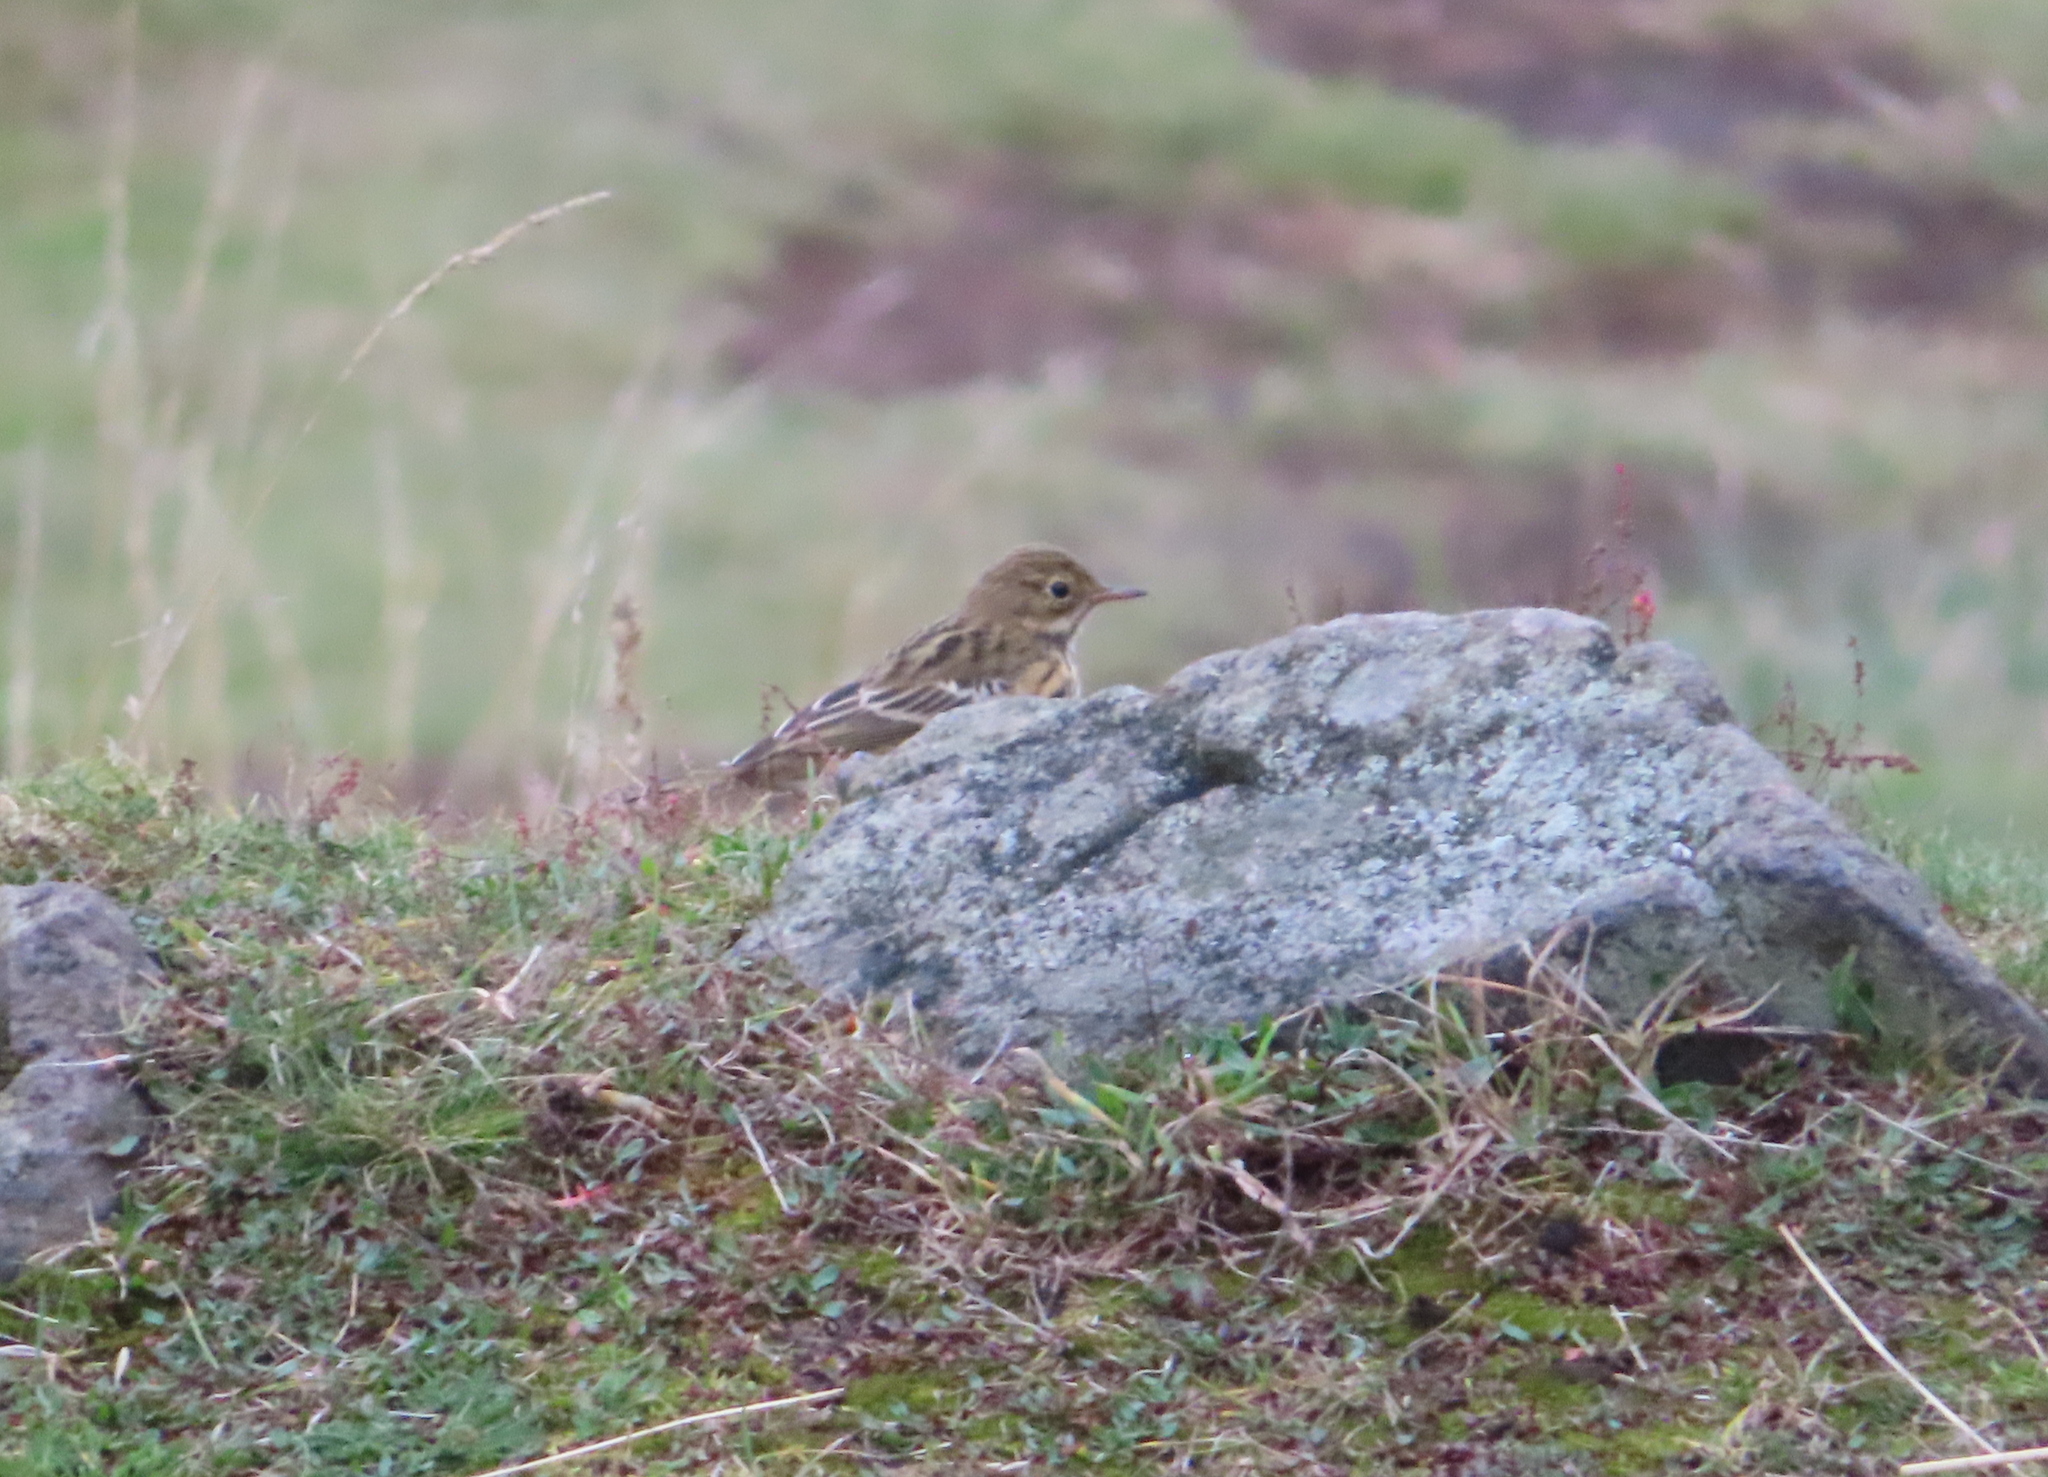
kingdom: Animalia
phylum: Chordata
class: Aves
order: Passeriformes
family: Motacillidae
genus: Anthus
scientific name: Anthus pratensis
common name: Meadow pipit
